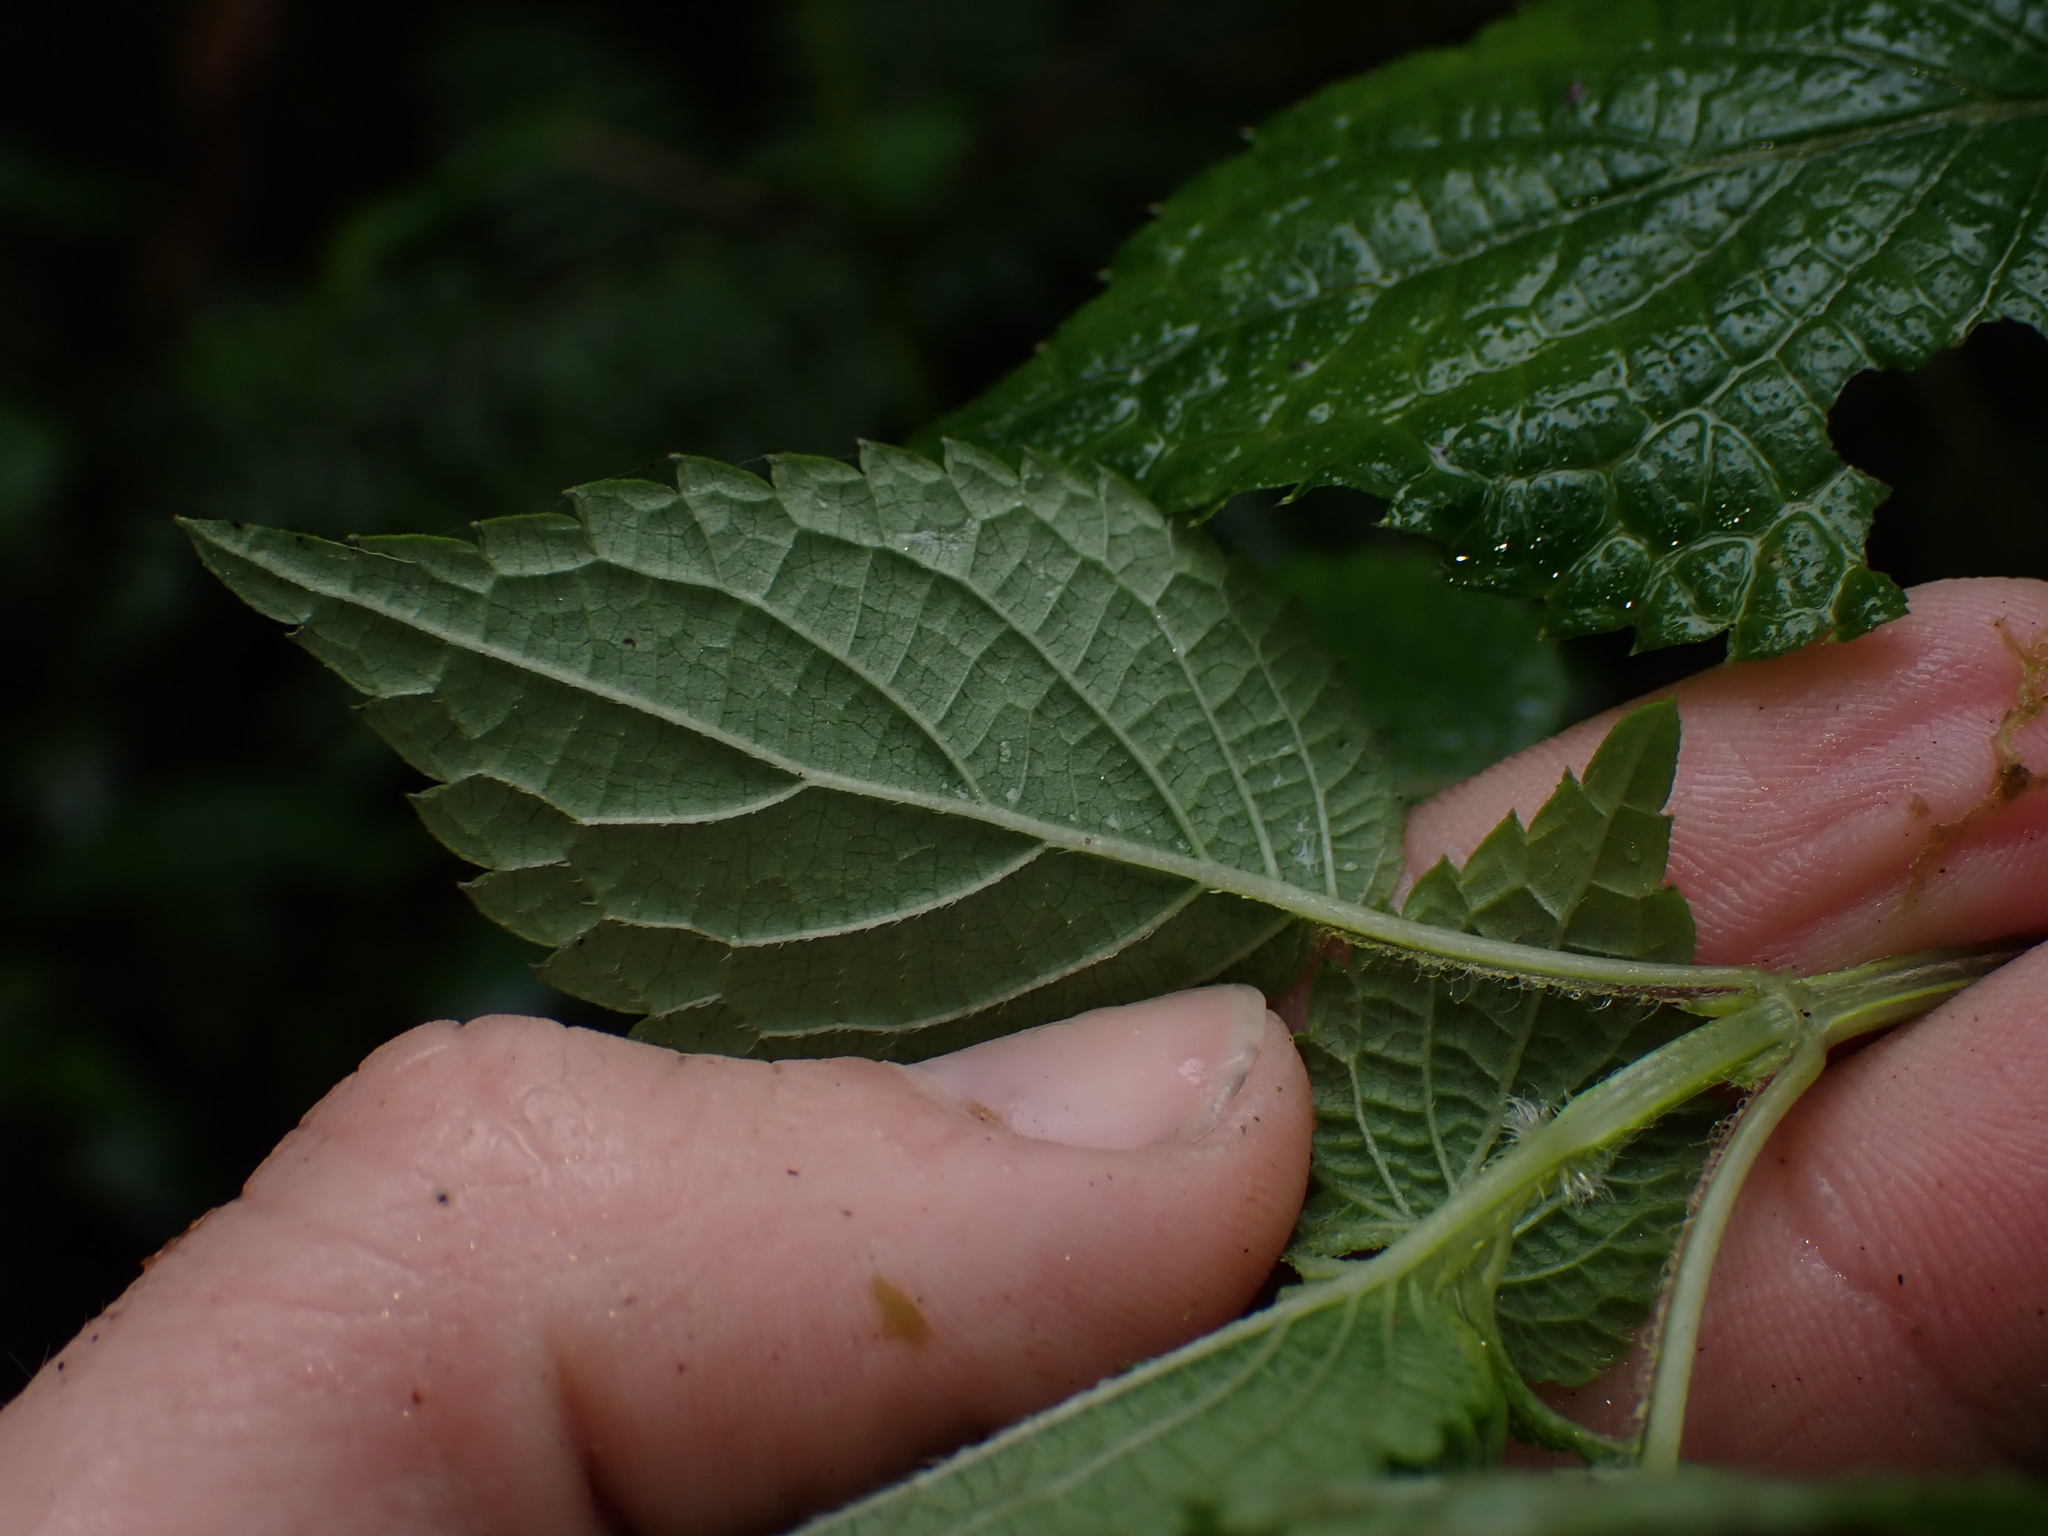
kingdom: Plantae
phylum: Tracheophyta
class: Magnoliopsida
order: Lamiales
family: Lamiaceae
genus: Salvia
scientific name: Salvia carnea
